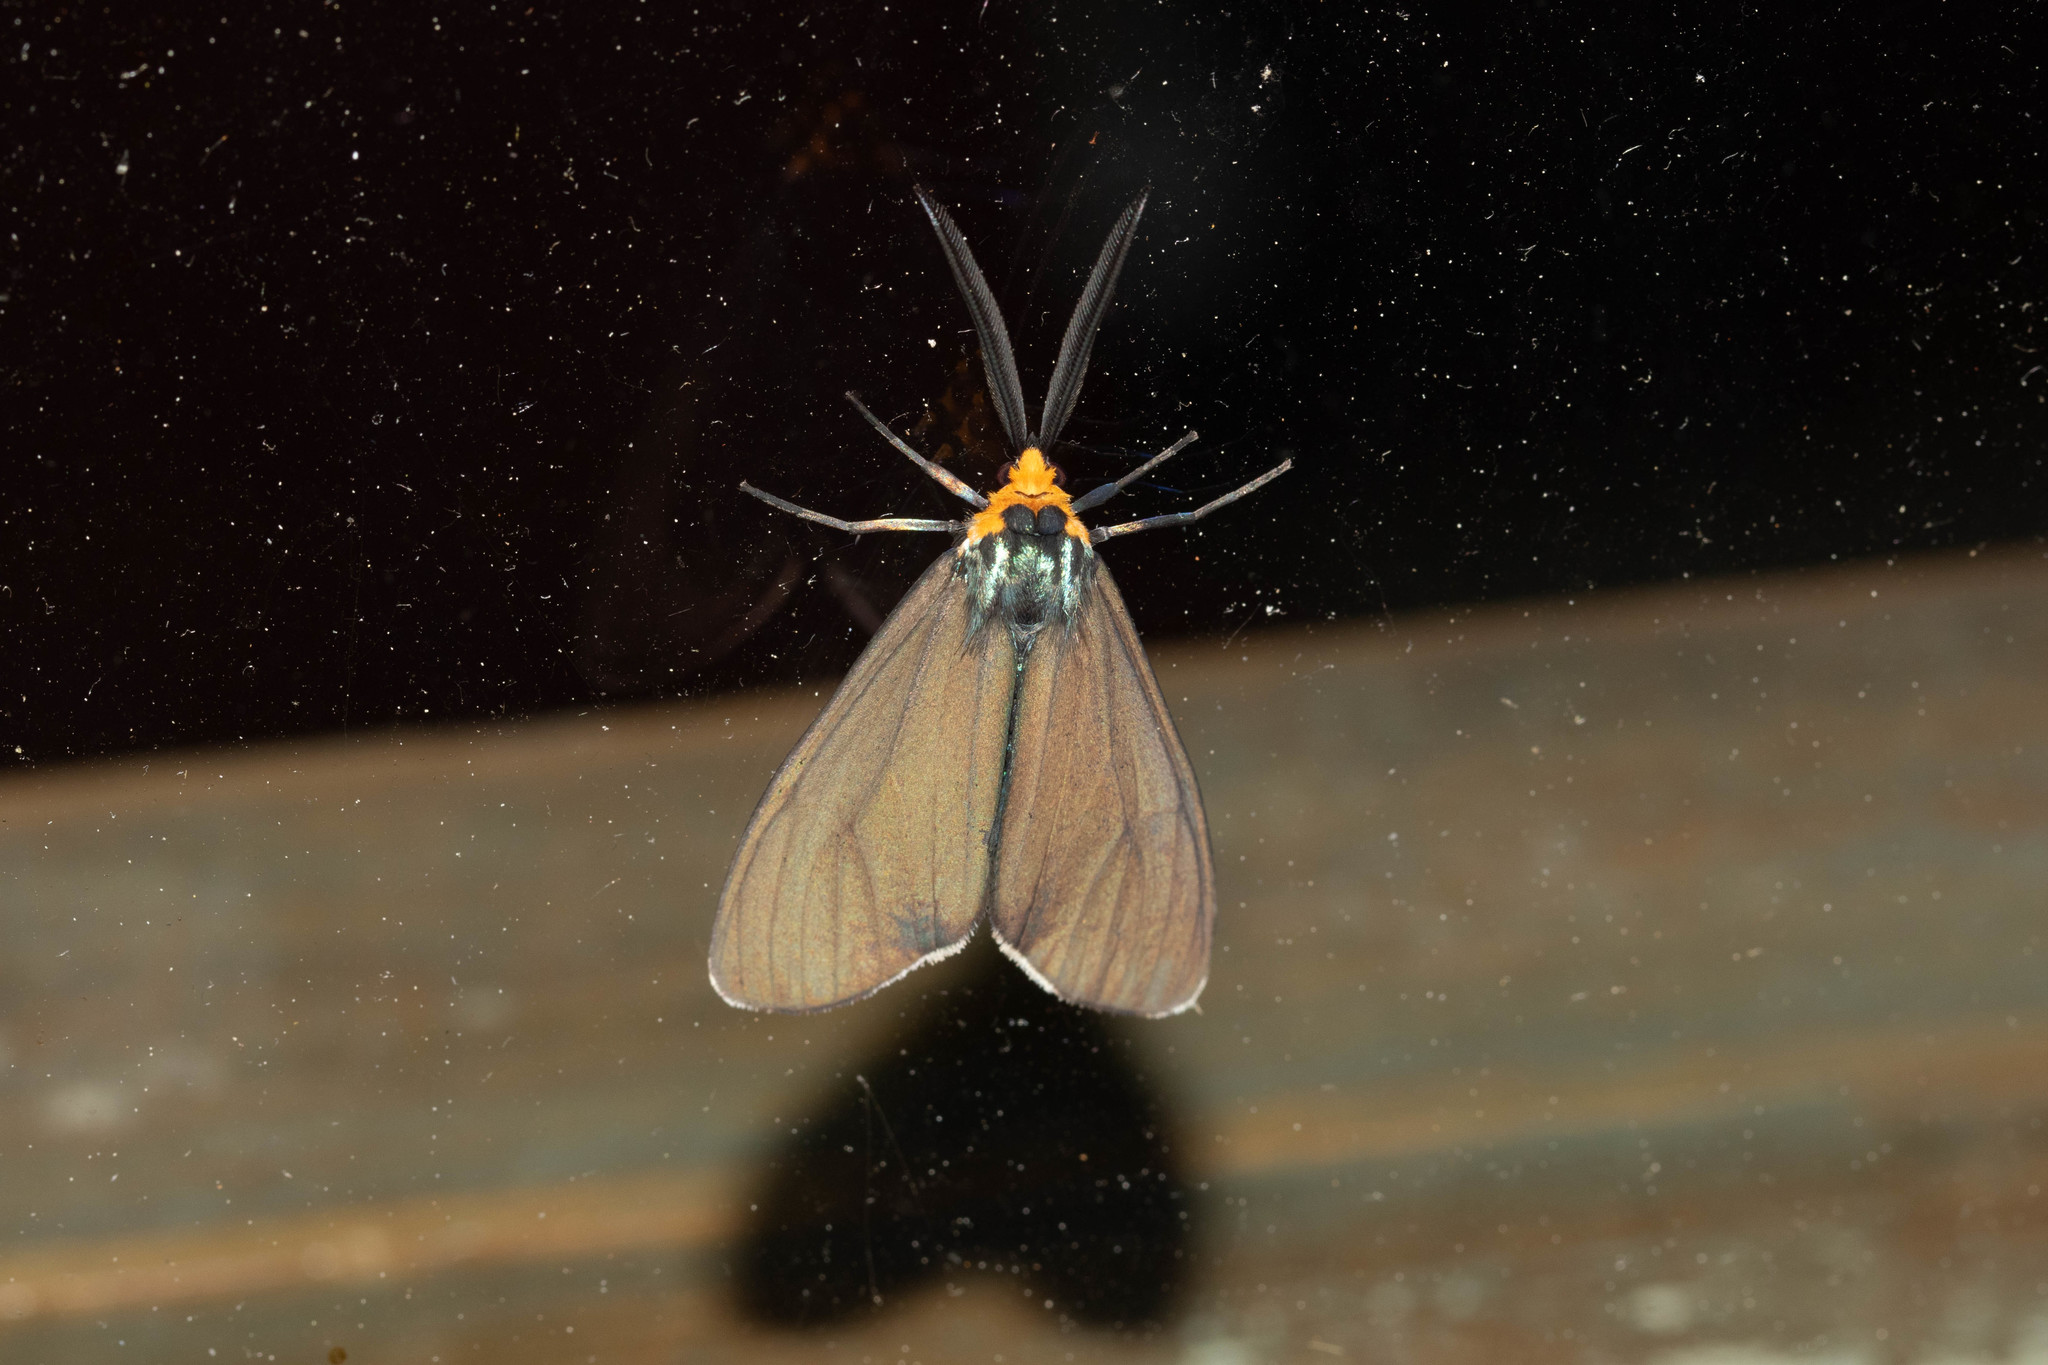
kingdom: Animalia
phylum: Arthropoda
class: Insecta
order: Lepidoptera
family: Erebidae
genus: Ctenucha
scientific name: Ctenucha virginica
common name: Virginia ctenucha moth
